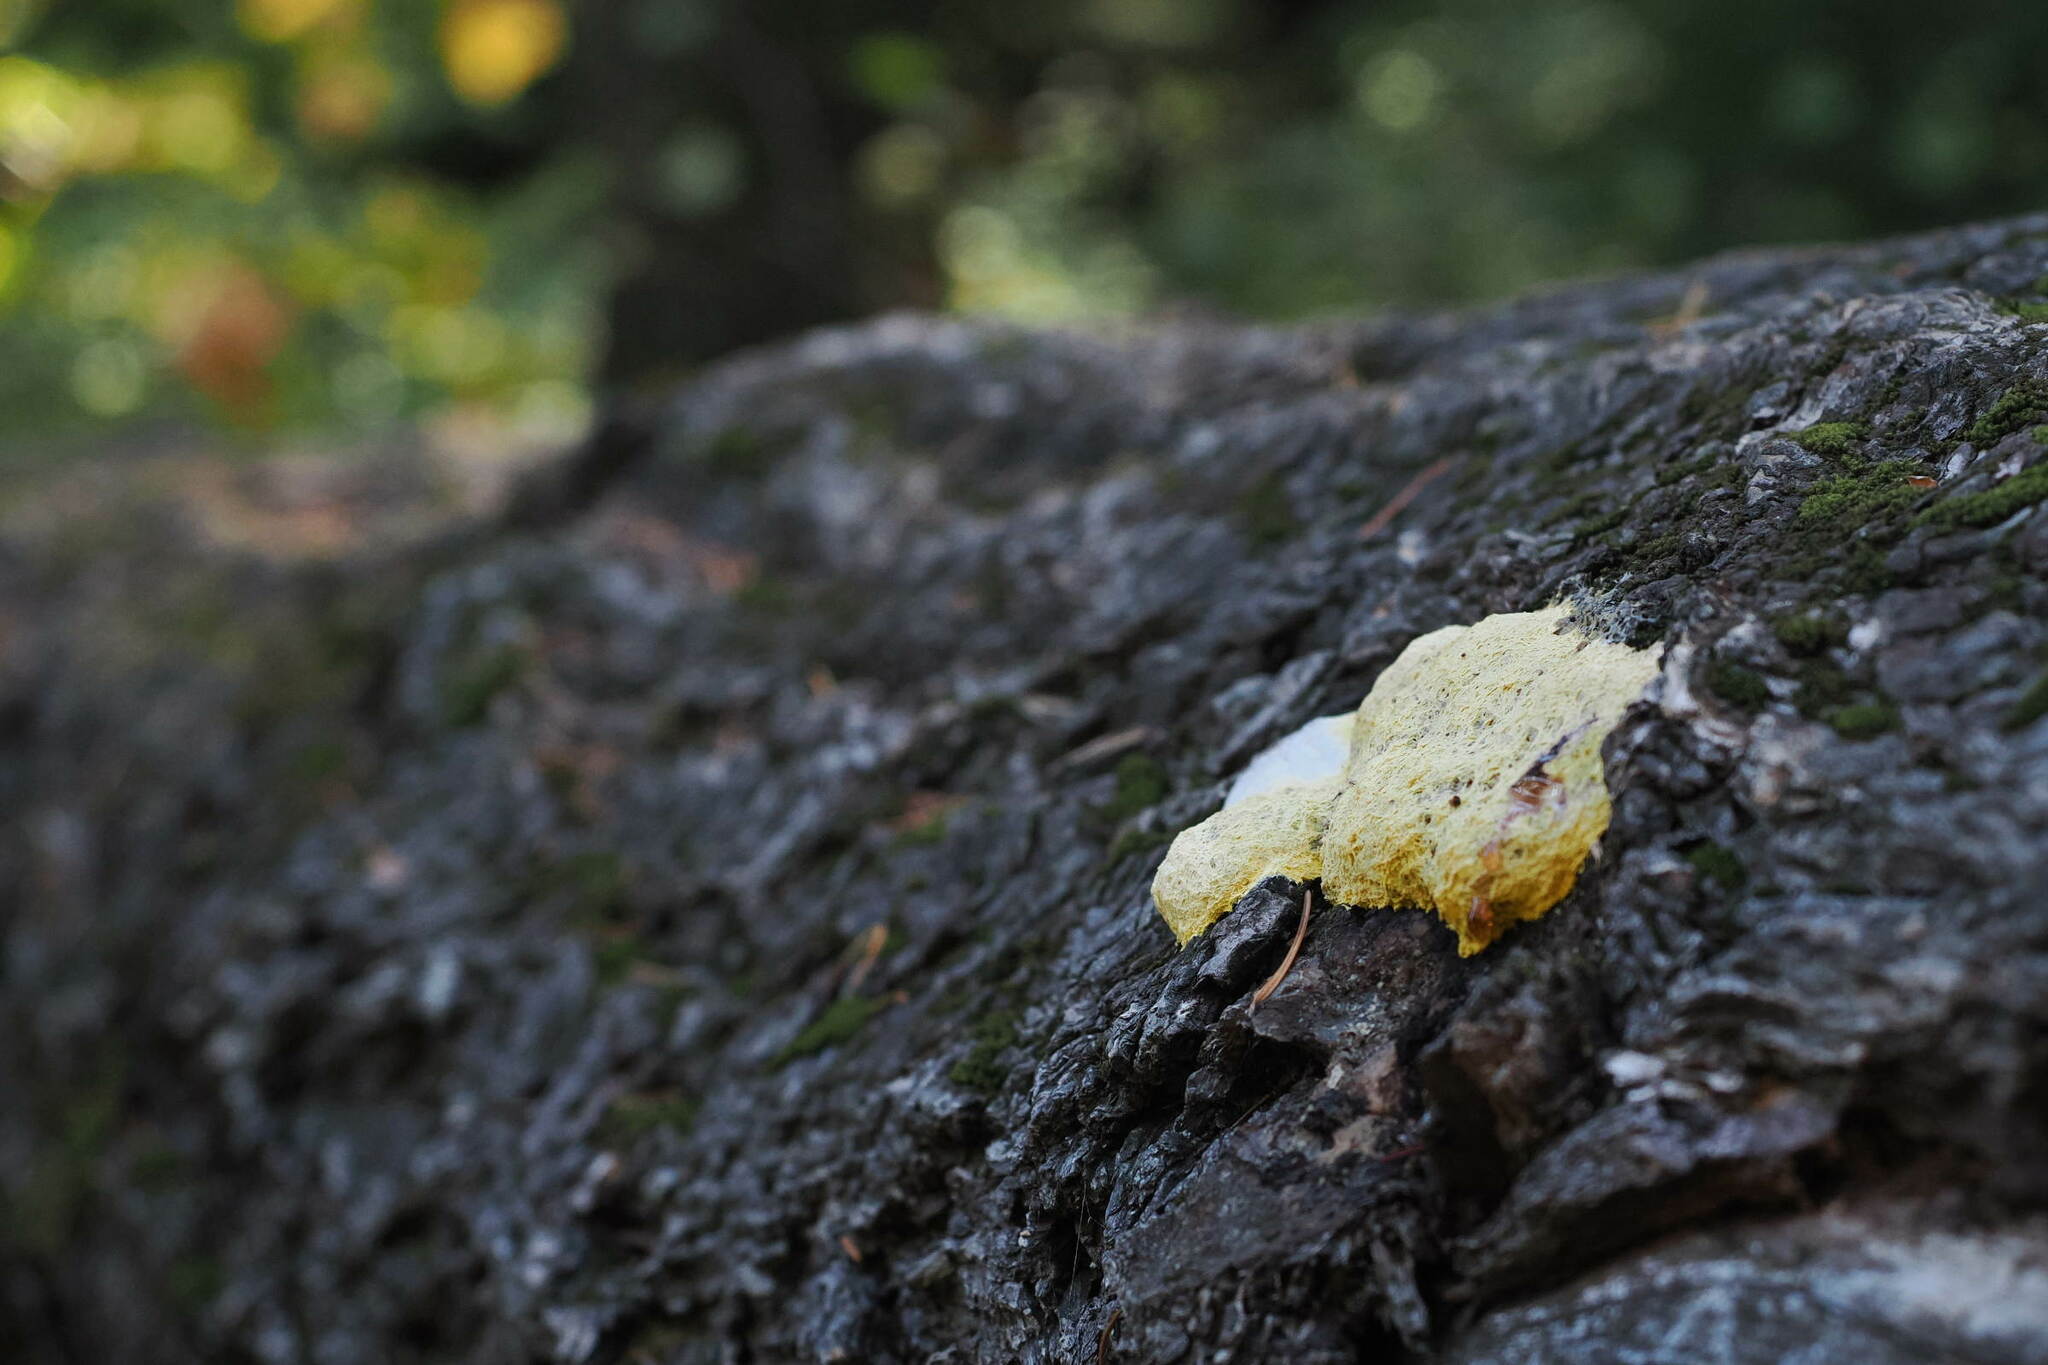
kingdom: Protozoa
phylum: Mycetozoa
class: Myxomycetes
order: Physarales
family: Physaraceae
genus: Fuligo
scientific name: Fuligo septica
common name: Dog vomit slime mold
